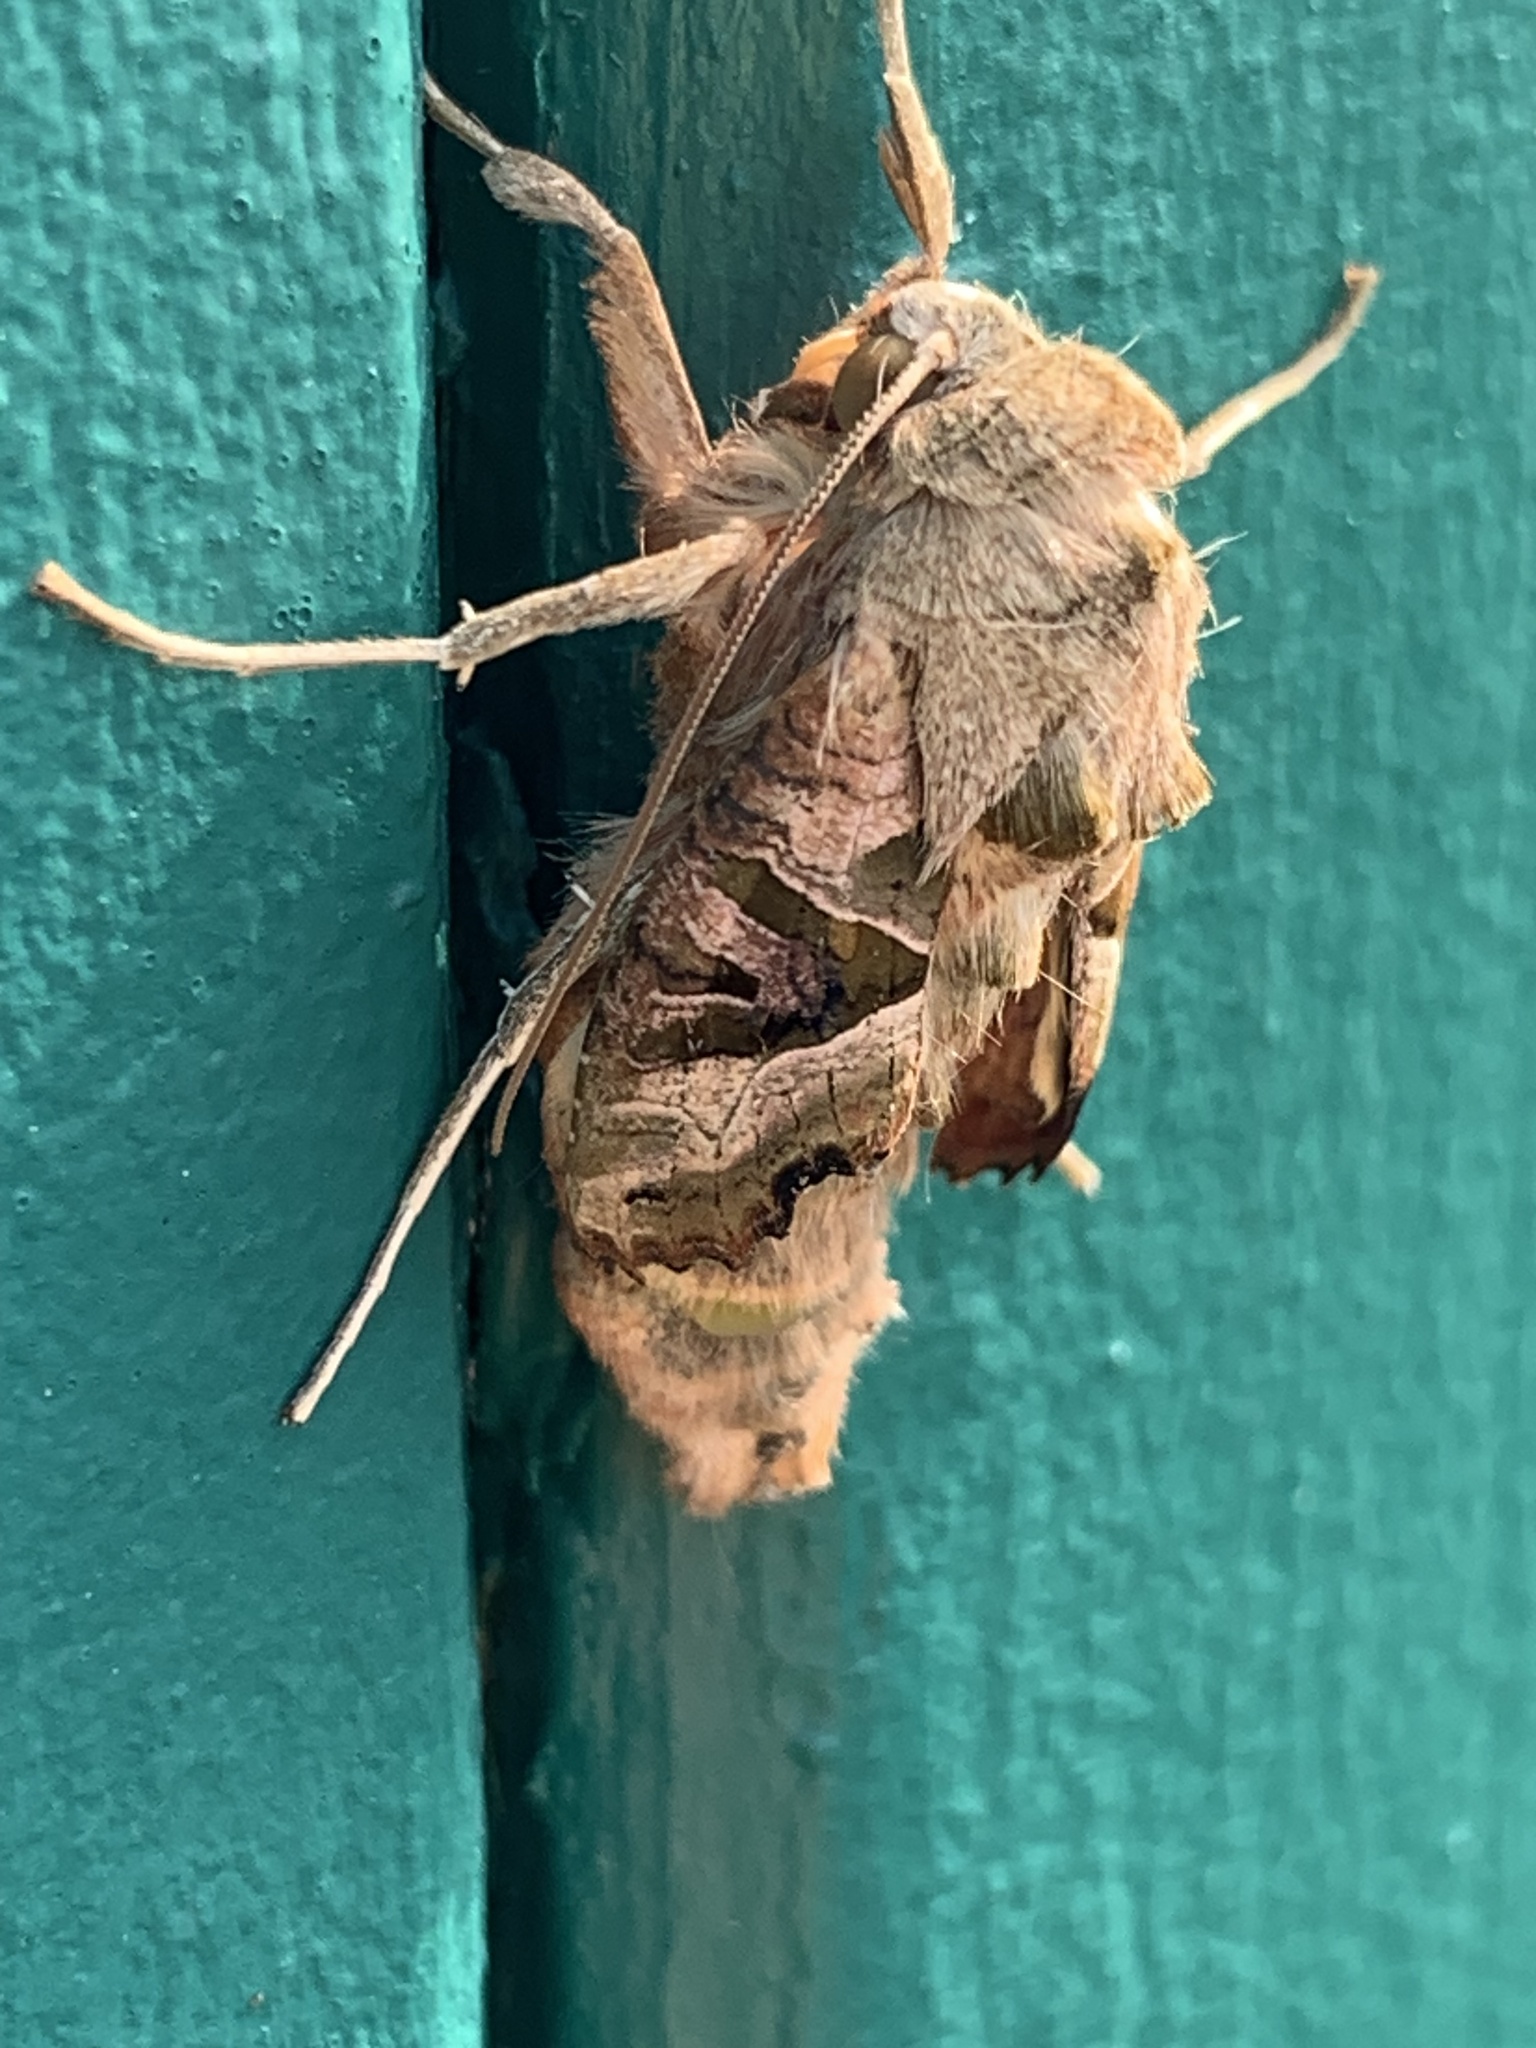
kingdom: Animalia
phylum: Arthropoda
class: Insecta
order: Lepidoptera
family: Noctuidae
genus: Phlogophora
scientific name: Phlogophora meticulosa
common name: Angle shades
